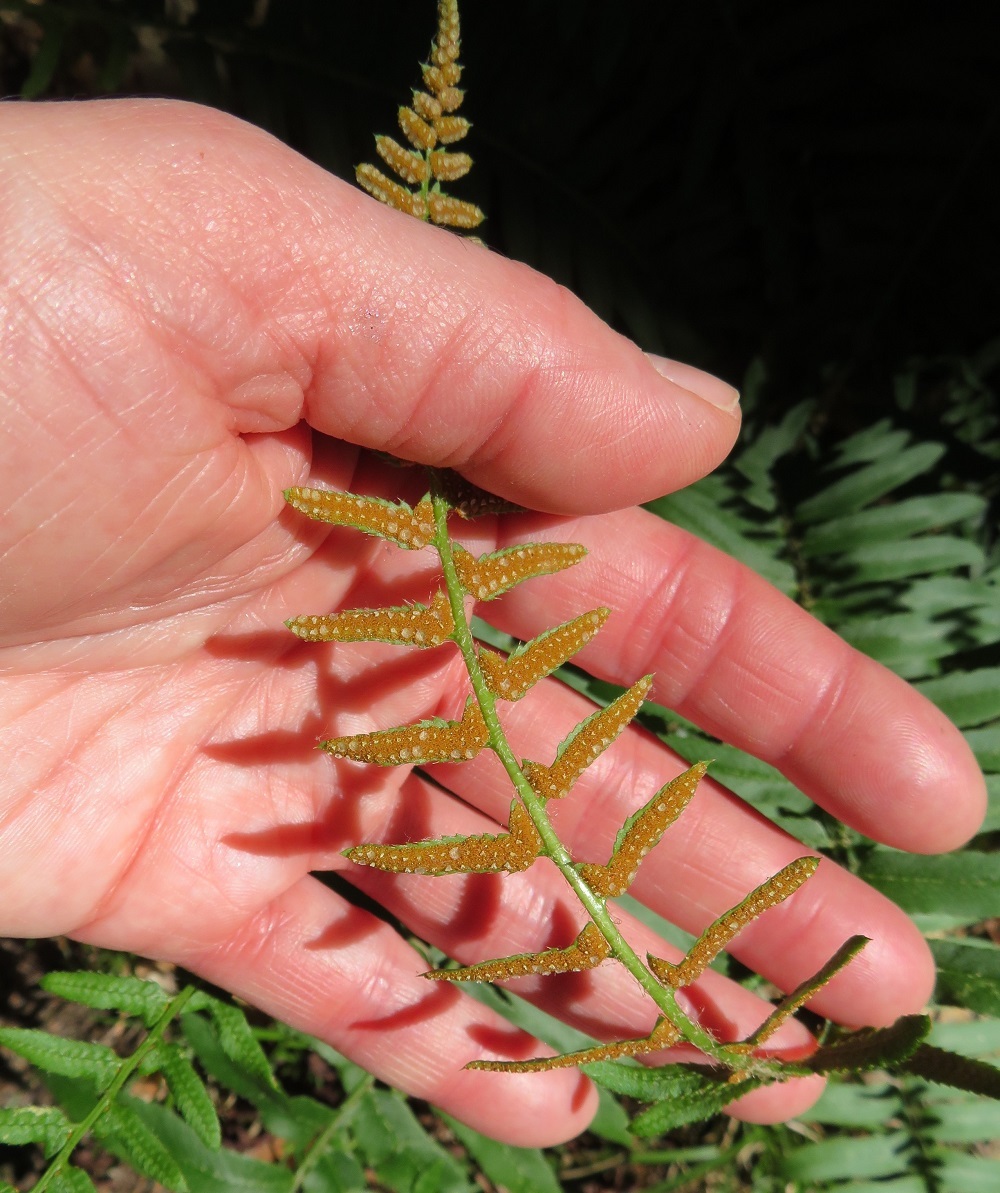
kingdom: Plantae
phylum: Tracheophyta
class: Polypodiopsida
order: Polypodiales
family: Dryopteridaceae
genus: Polystichum
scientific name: Polystichum acrostichoides
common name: Christmas fern
